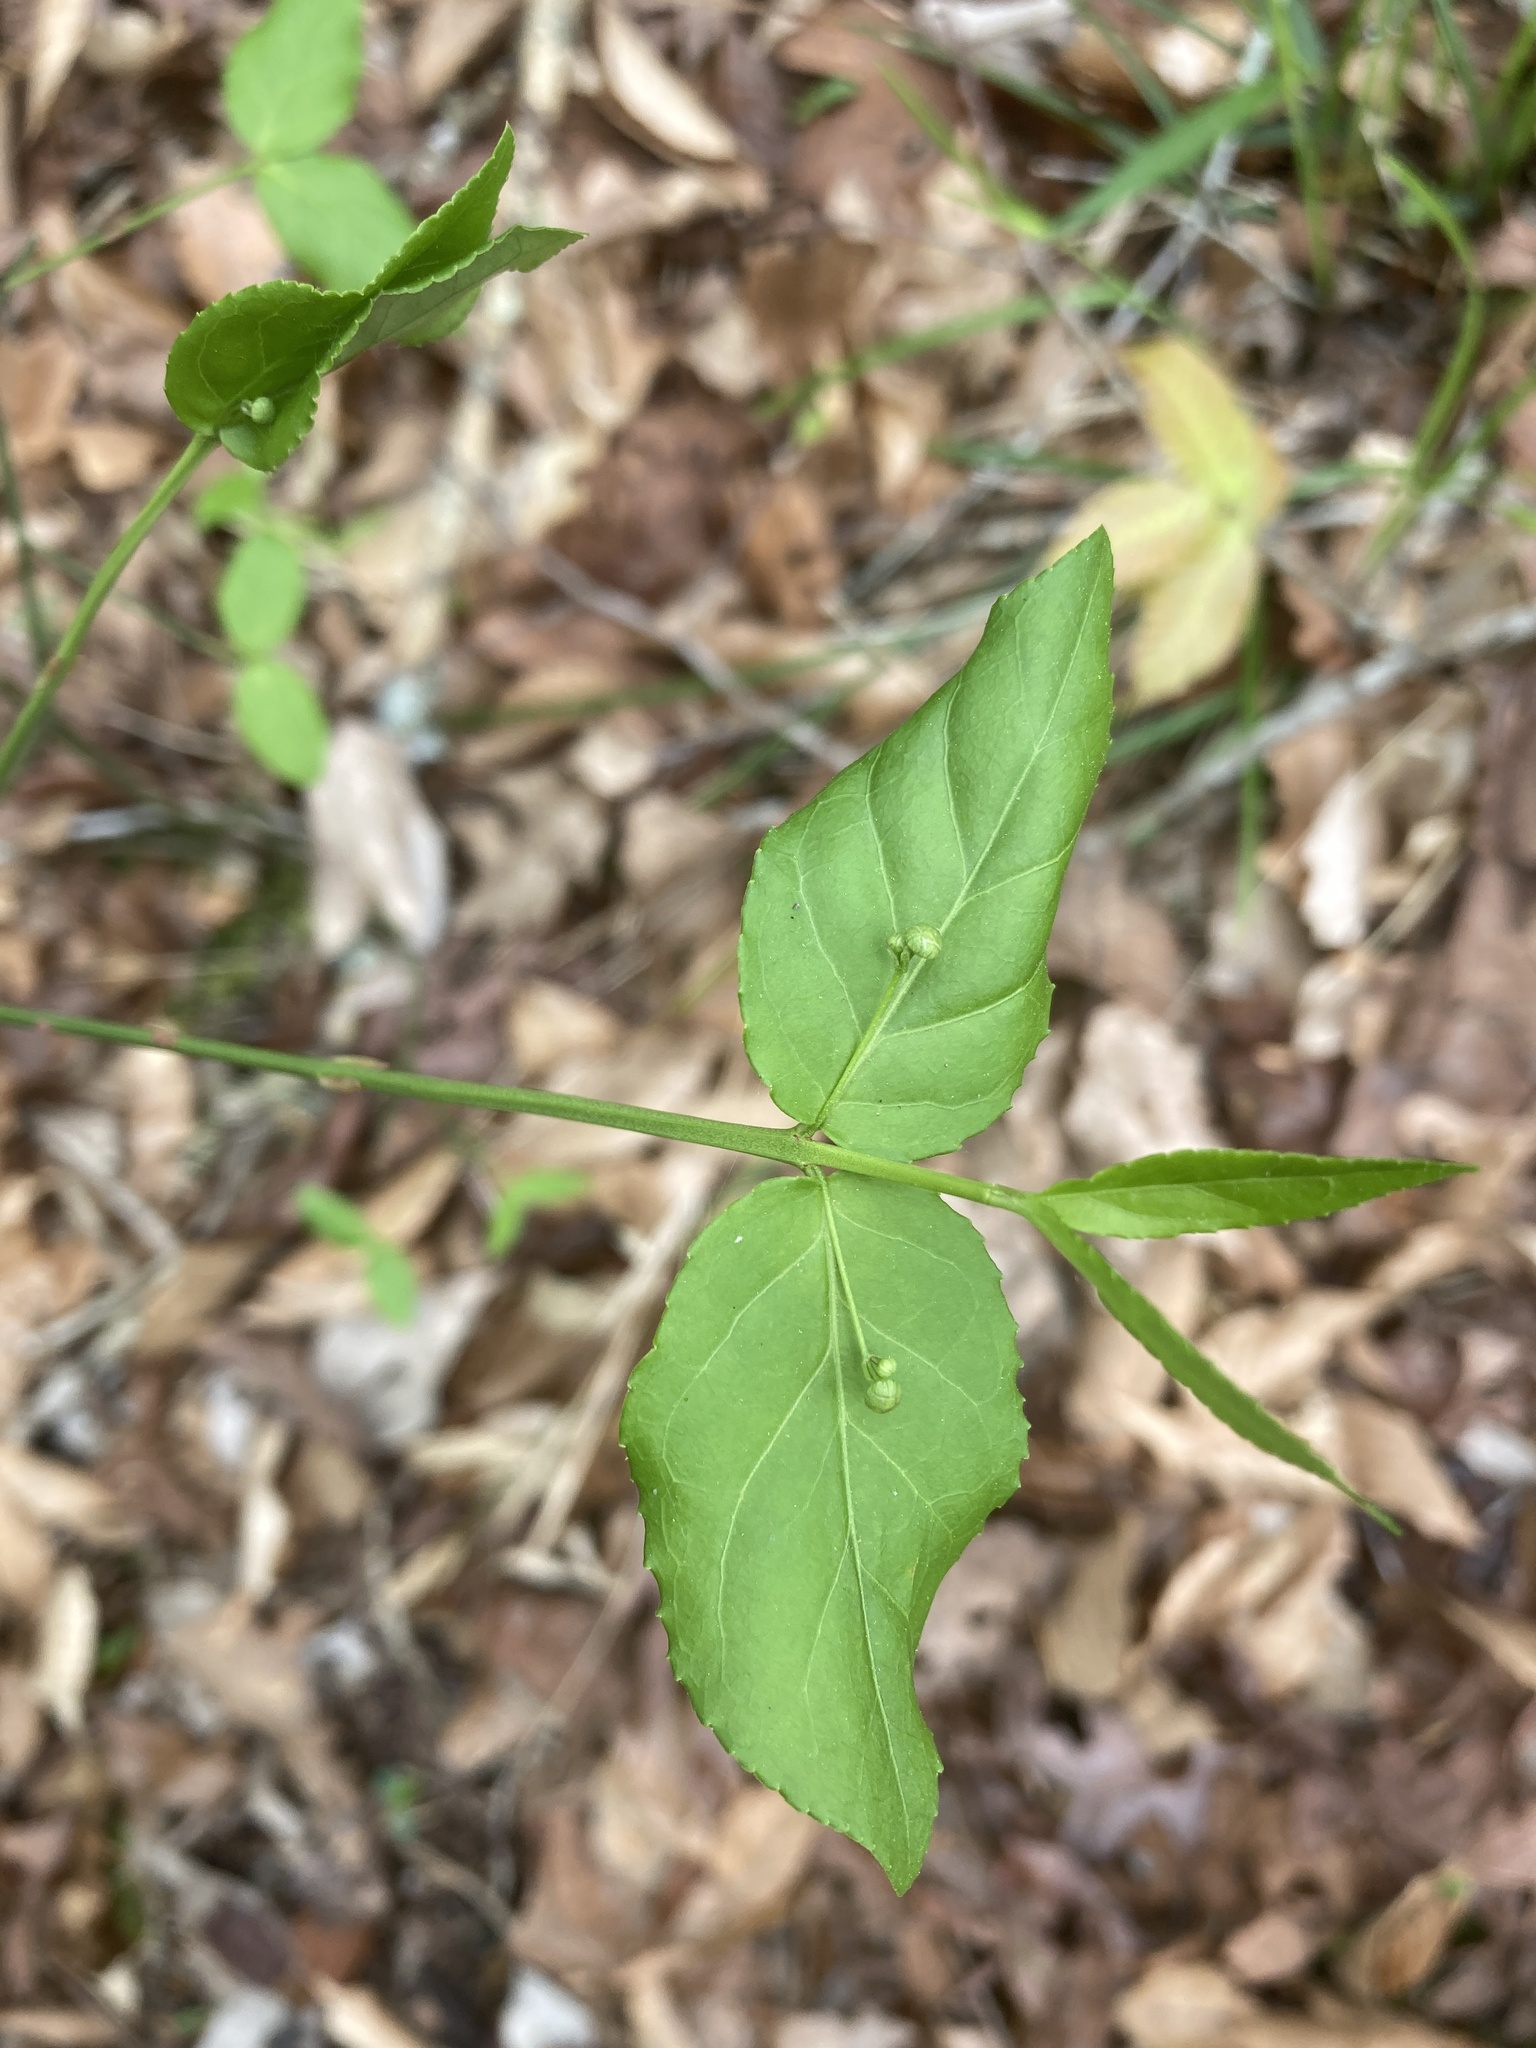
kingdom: Plantae
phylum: Tracheophyta
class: Magnoliopsida
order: Celastrales
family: Celastraceae
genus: Euonymus
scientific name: Euonymus americanus
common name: Bursting-heart
